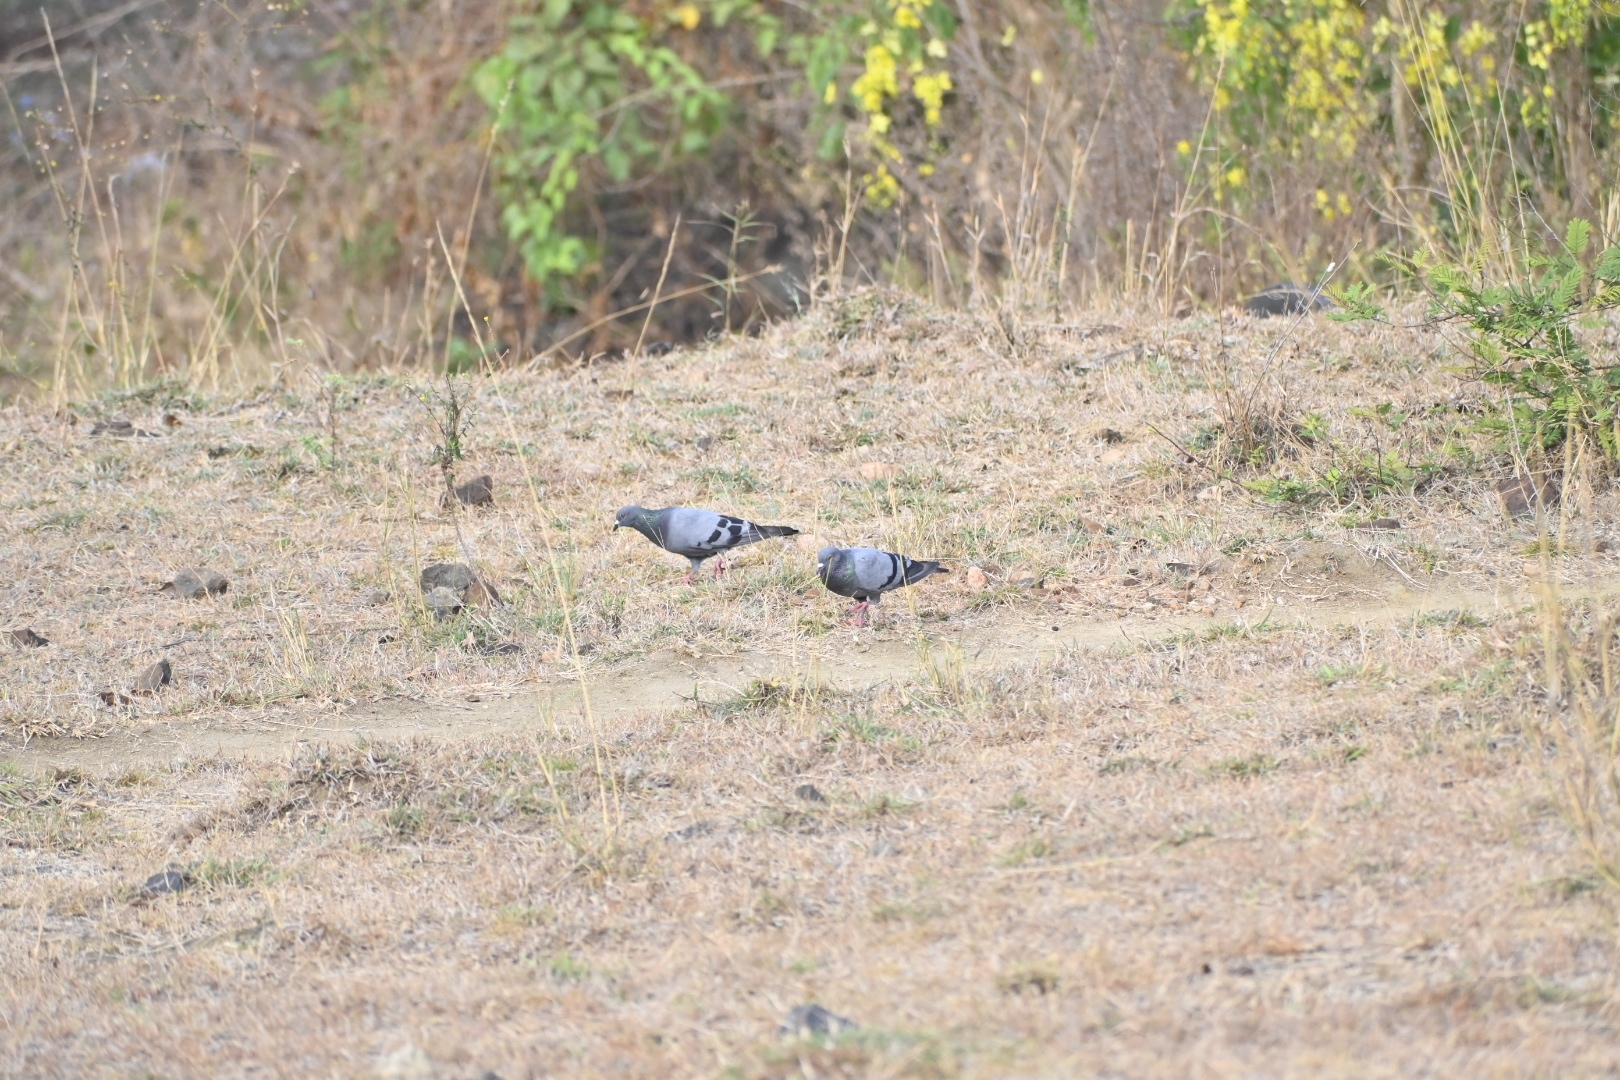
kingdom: Animalia
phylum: Chordata
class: Aves
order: Columbiformes
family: Columbidae
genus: Columba
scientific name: Columba livia
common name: Rock pigeon
